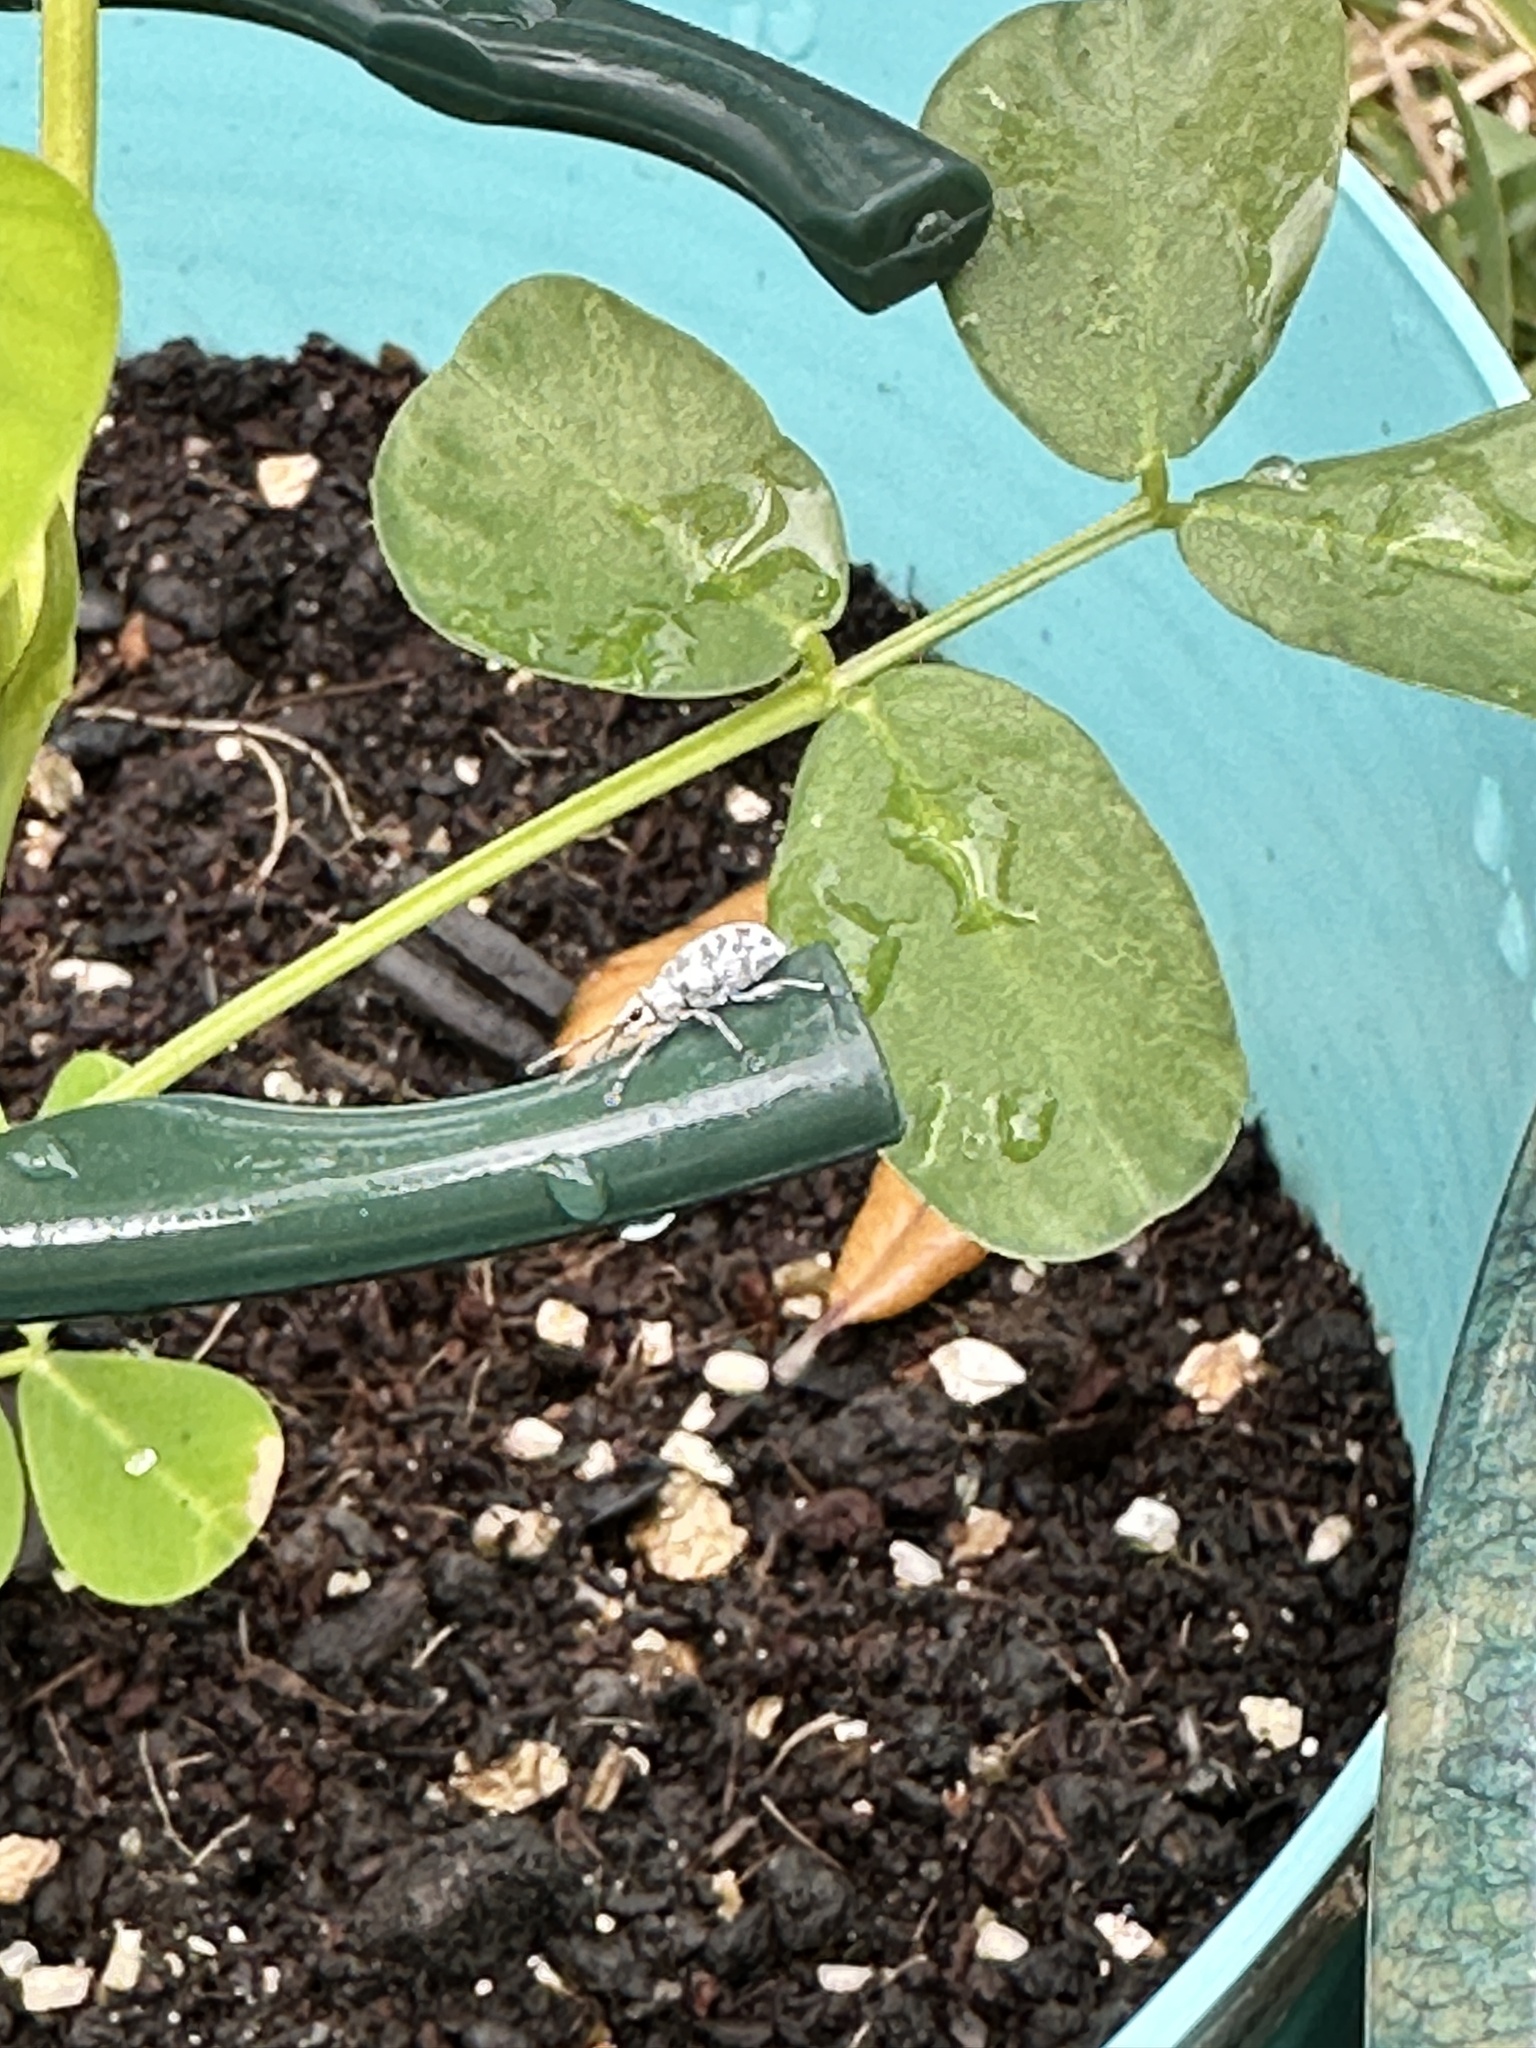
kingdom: Animalia
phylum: Arthropoda
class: Insecta
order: Coleoptera
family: Curculionidae
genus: Myllocerus
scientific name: Myllocerus undecimpustulatus
